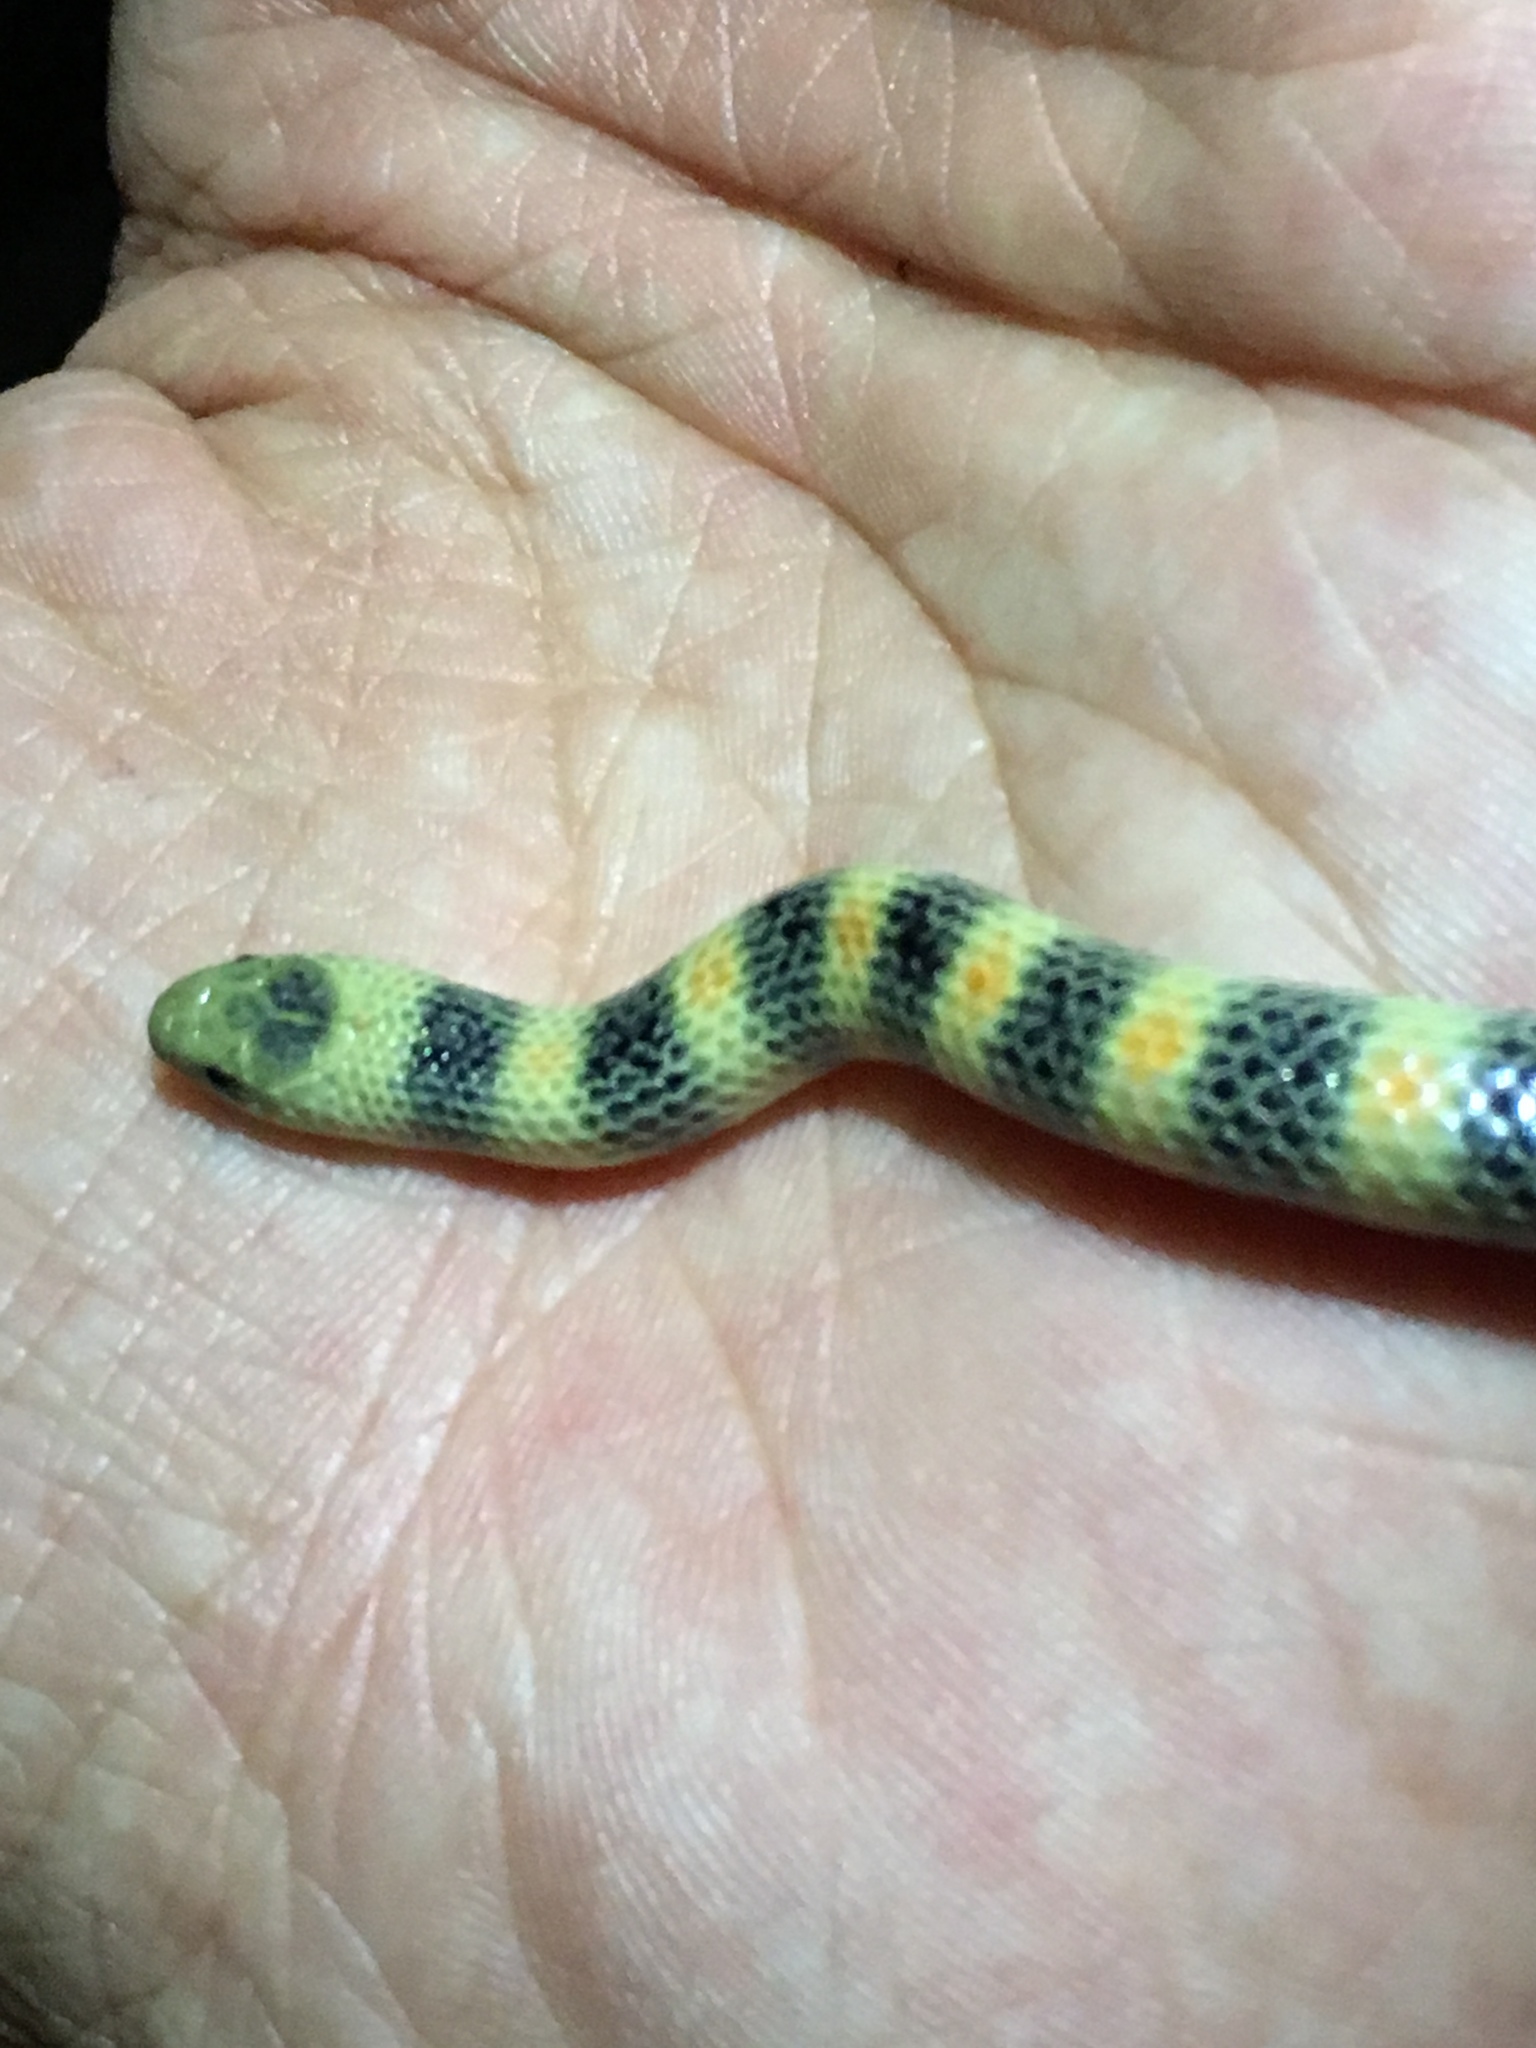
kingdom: Animalia
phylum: Chordata
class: Squamata
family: Colubridae
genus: Sonora
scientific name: Sonora semiannulata
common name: Ground snake
